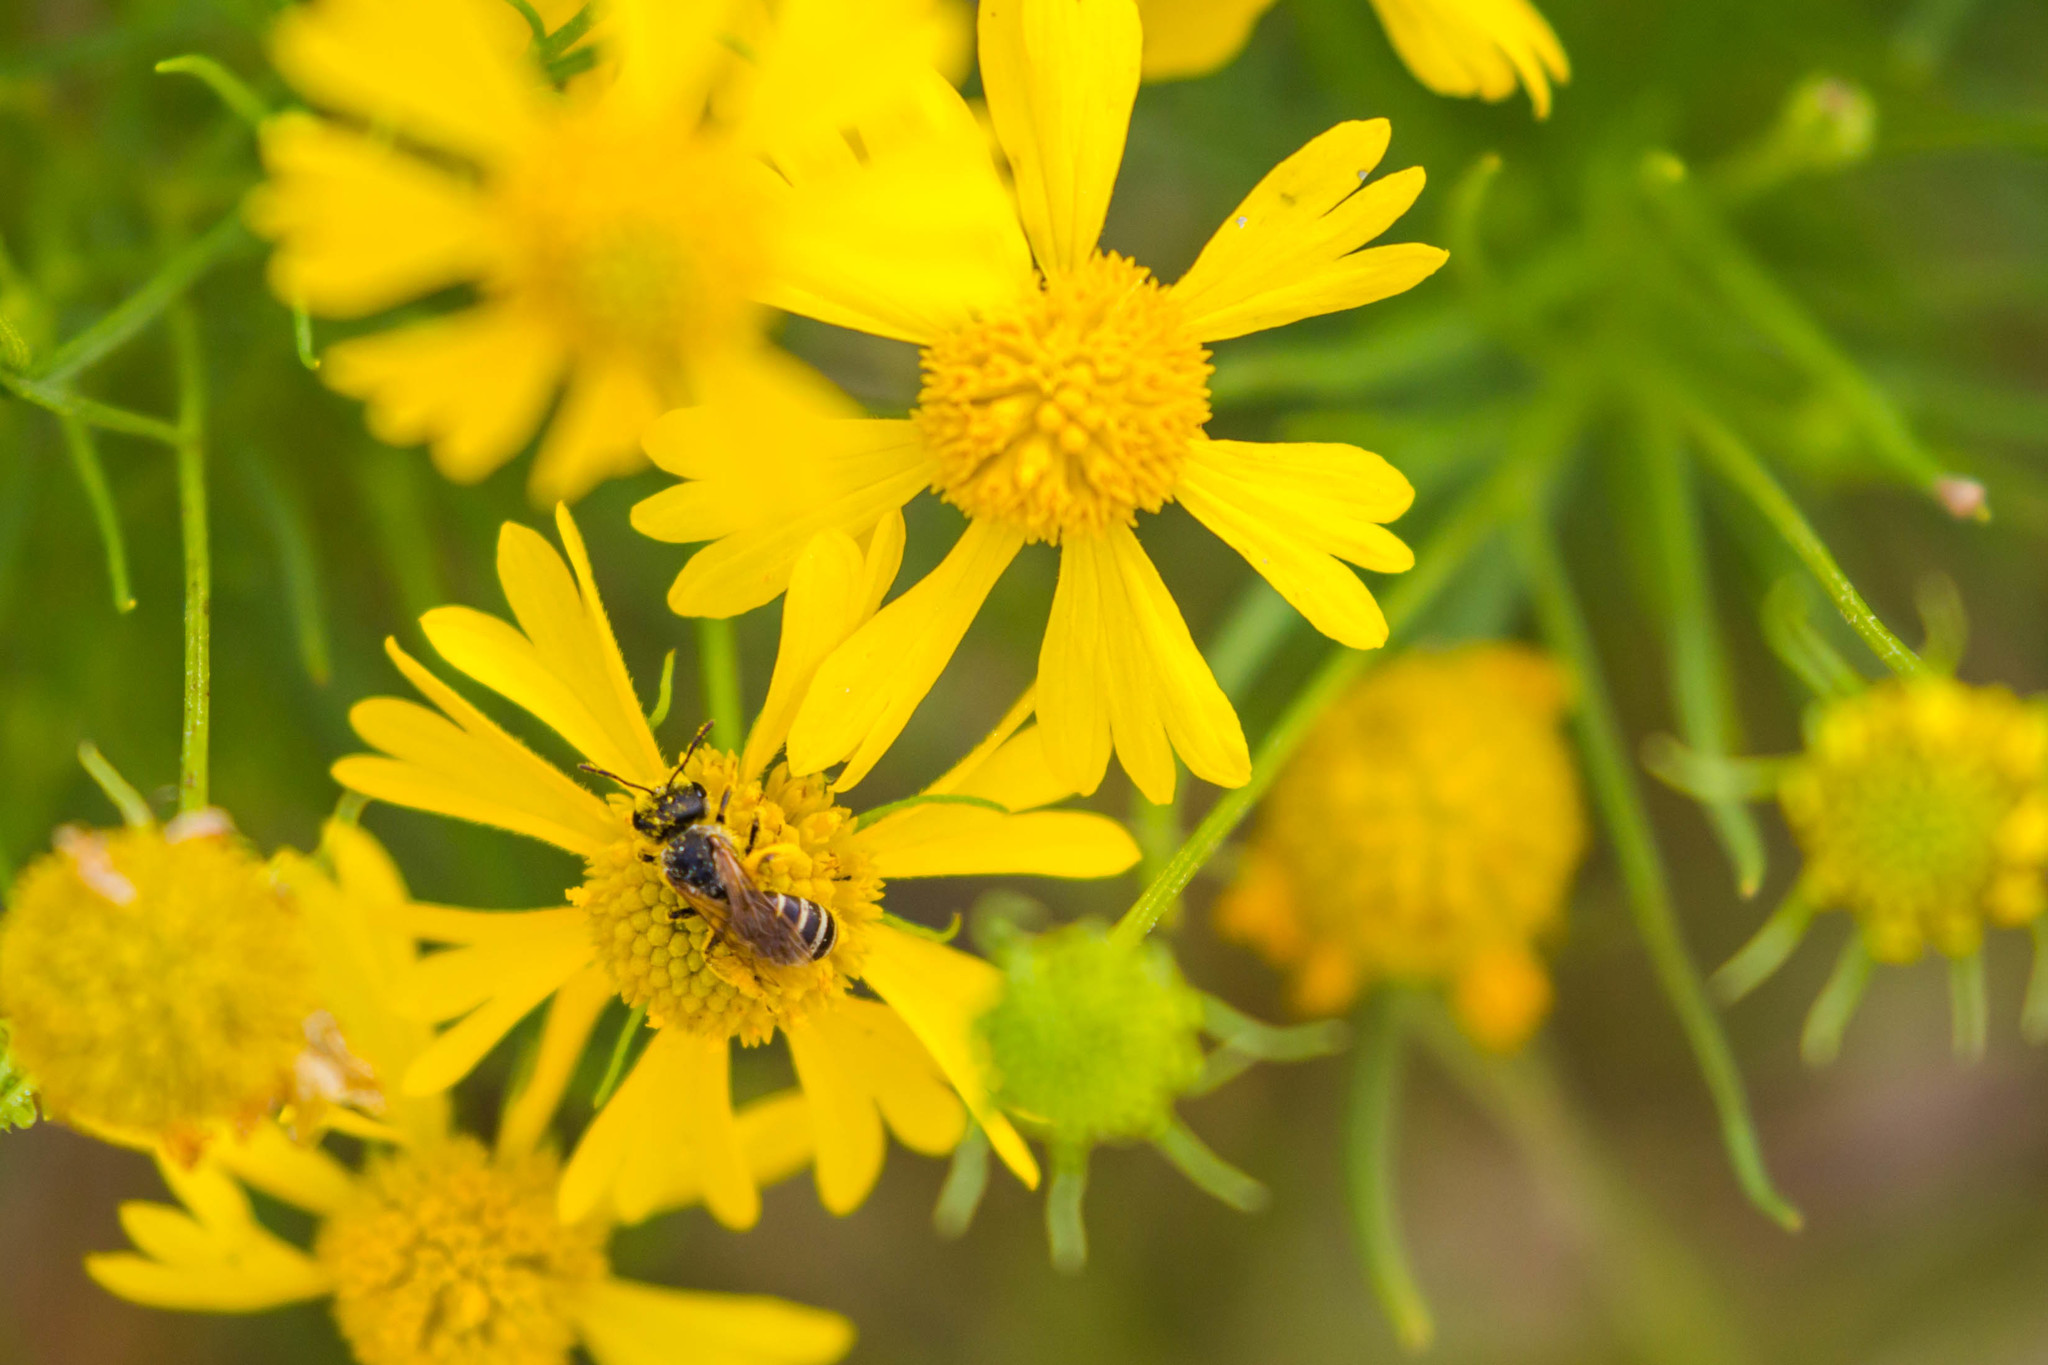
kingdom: Animalia
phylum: Arthropoda
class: Insecta
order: Hymenoptera
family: Halictidae
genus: Halictus
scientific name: Halictus ligatus
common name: Ligated furrow bee
